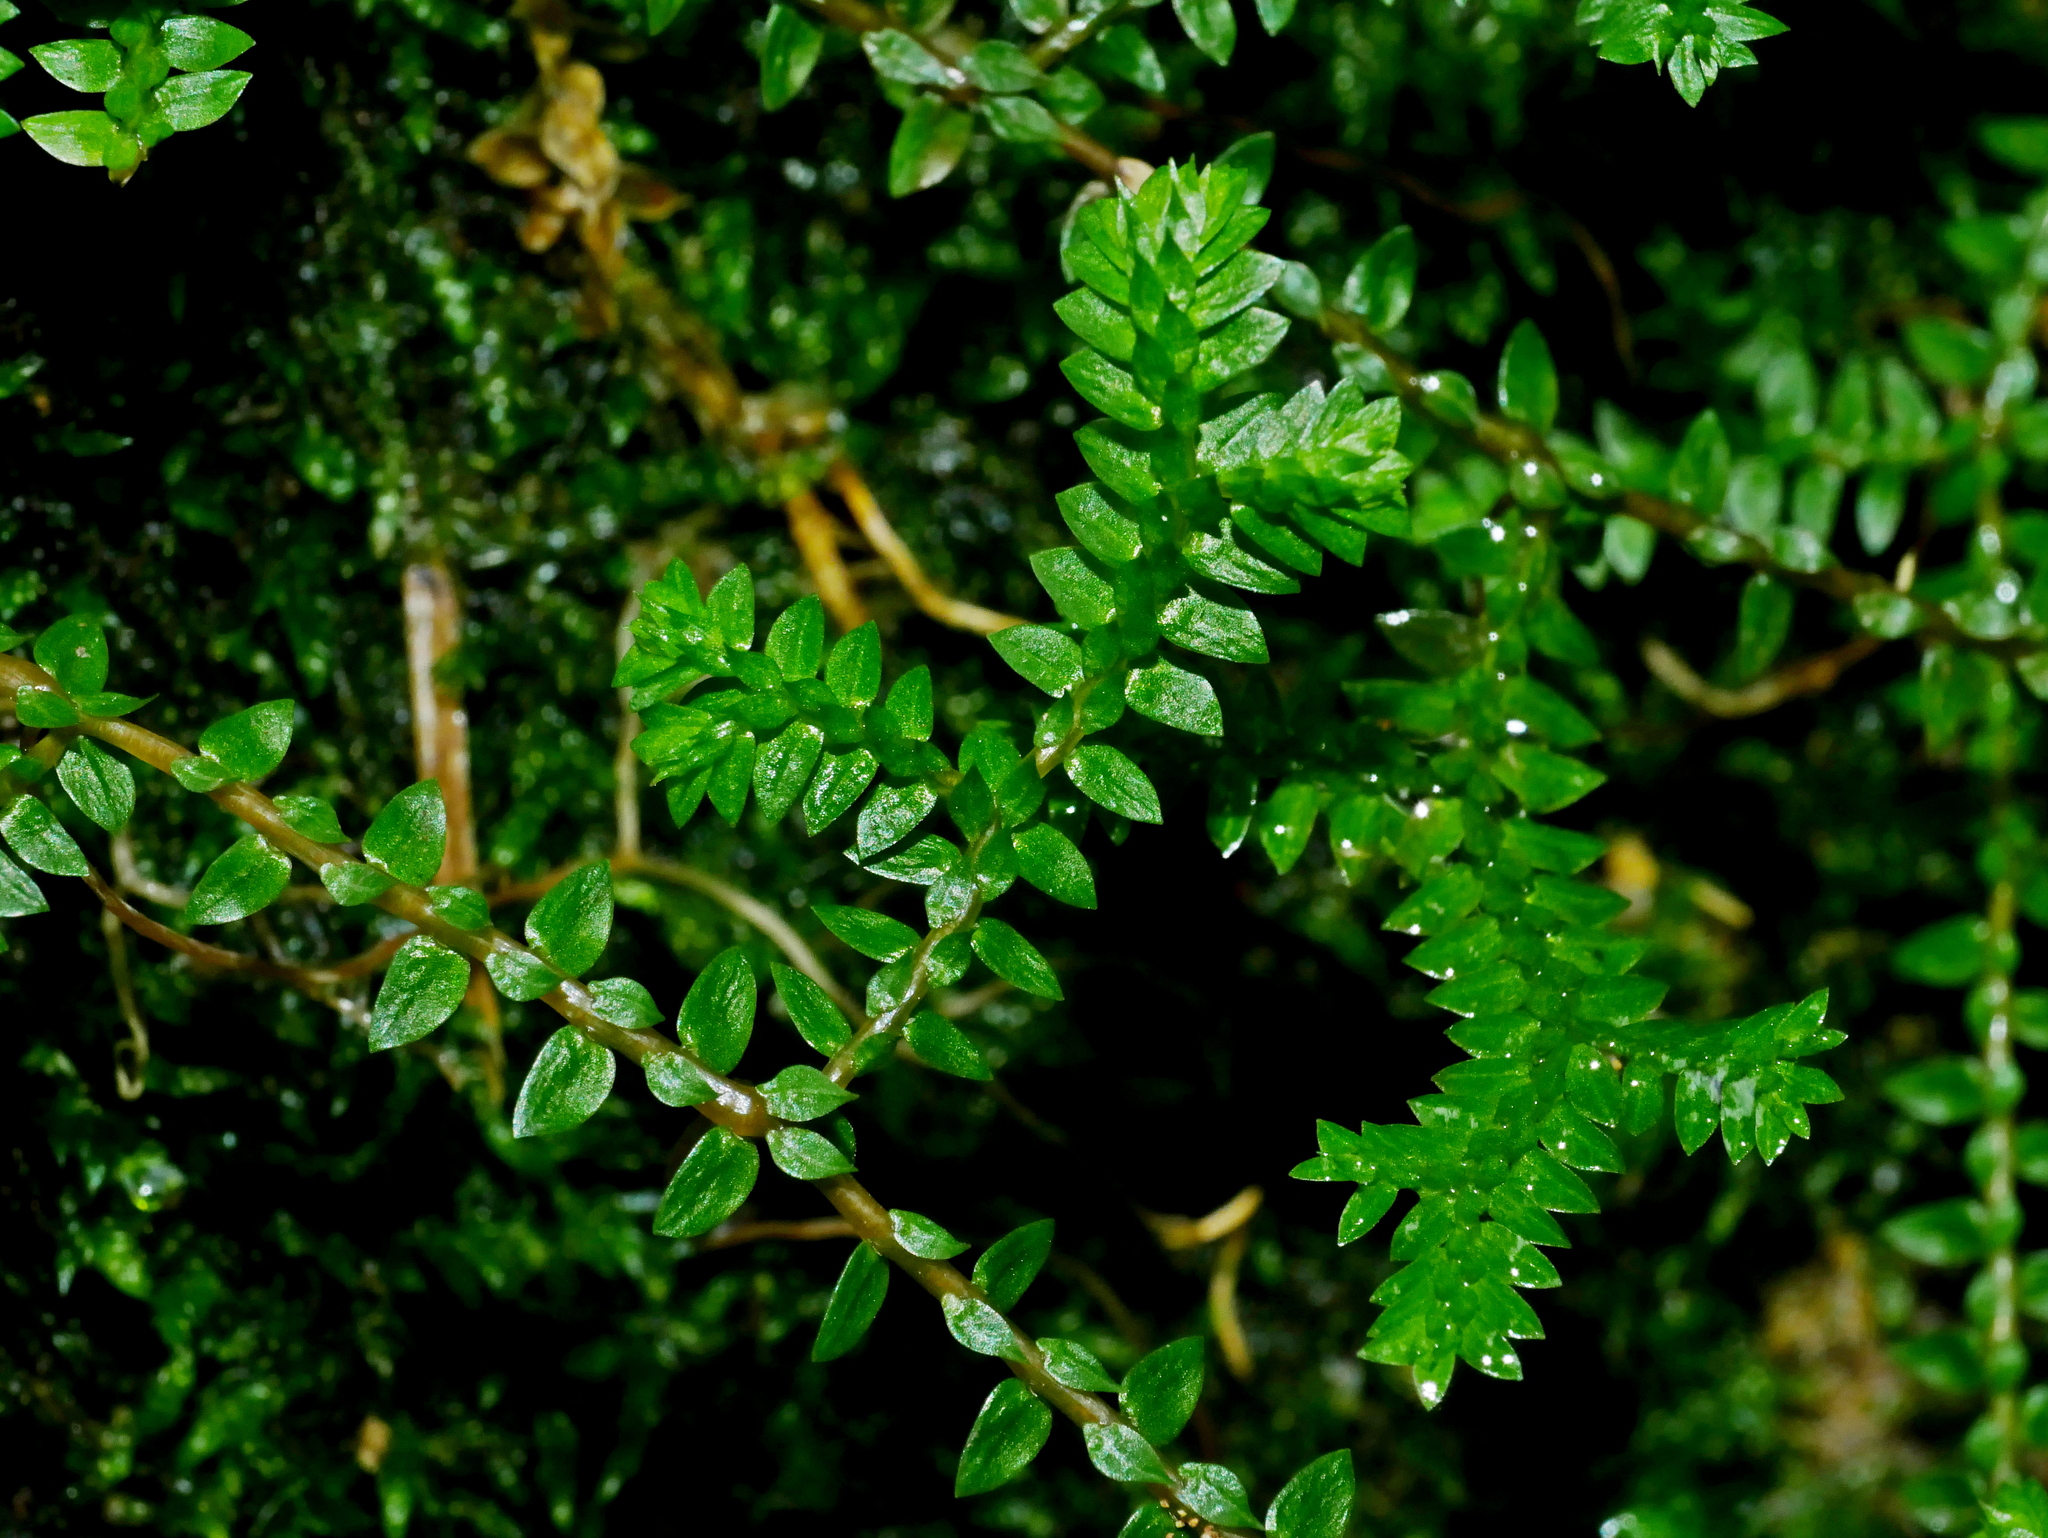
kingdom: Plantae
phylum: Tracheophyta
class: Lycopodiopsida
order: Selaginellales
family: Selaginellaceae
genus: Selaginella
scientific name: Selaginella remotifolia
